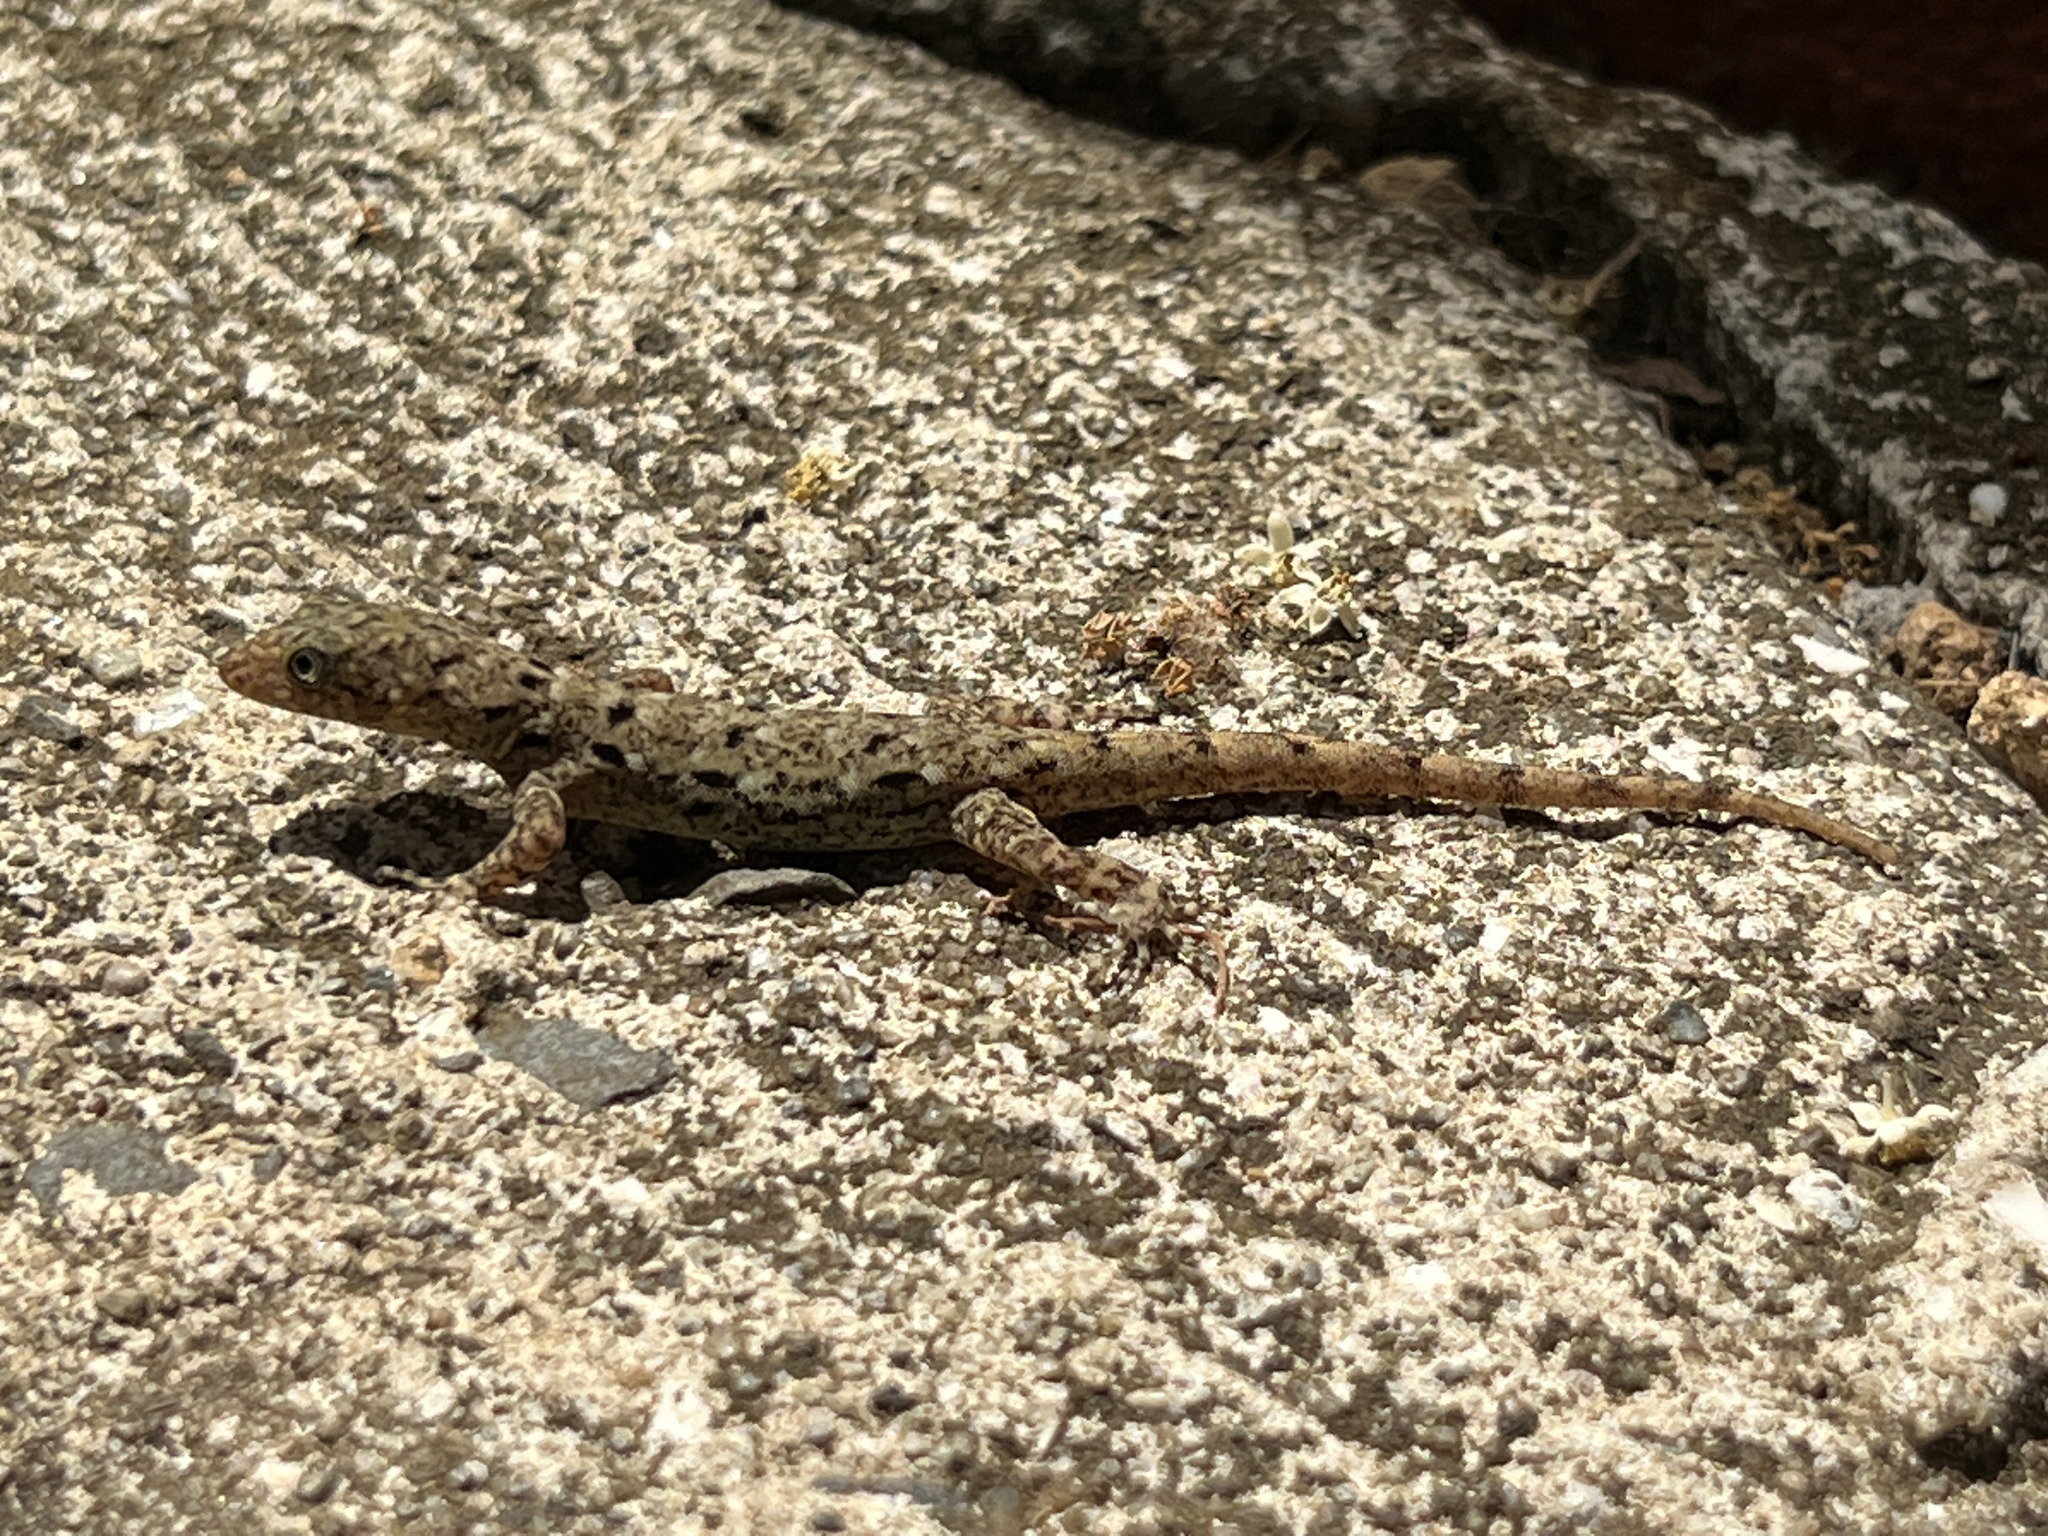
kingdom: Animalia
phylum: Chordata
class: Squamata
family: Sphaerodactylidae
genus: Gonatodes
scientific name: Gonatodes albogularis
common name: Yellow-headed gecko
